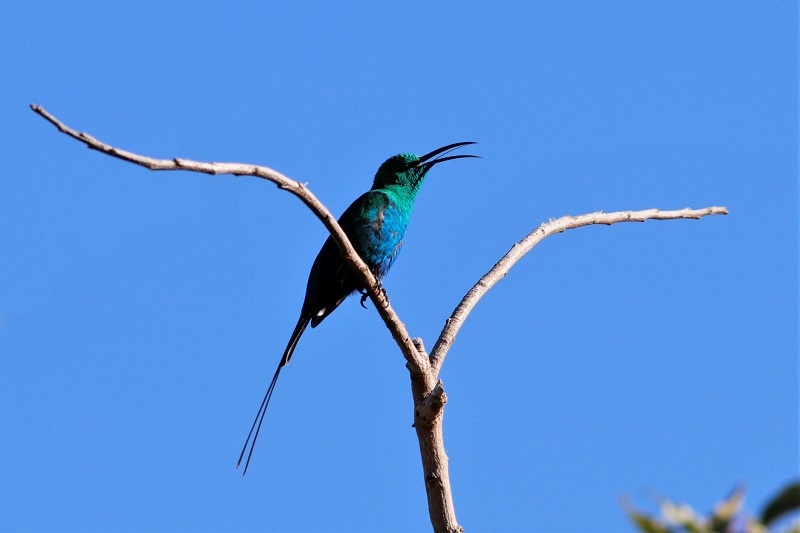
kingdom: Animalia
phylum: Chordata
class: Aves
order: Passeriformes
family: Nectariniidae
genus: Nectarinia
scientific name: Nectarinia famosa
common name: Malachite sunbird
